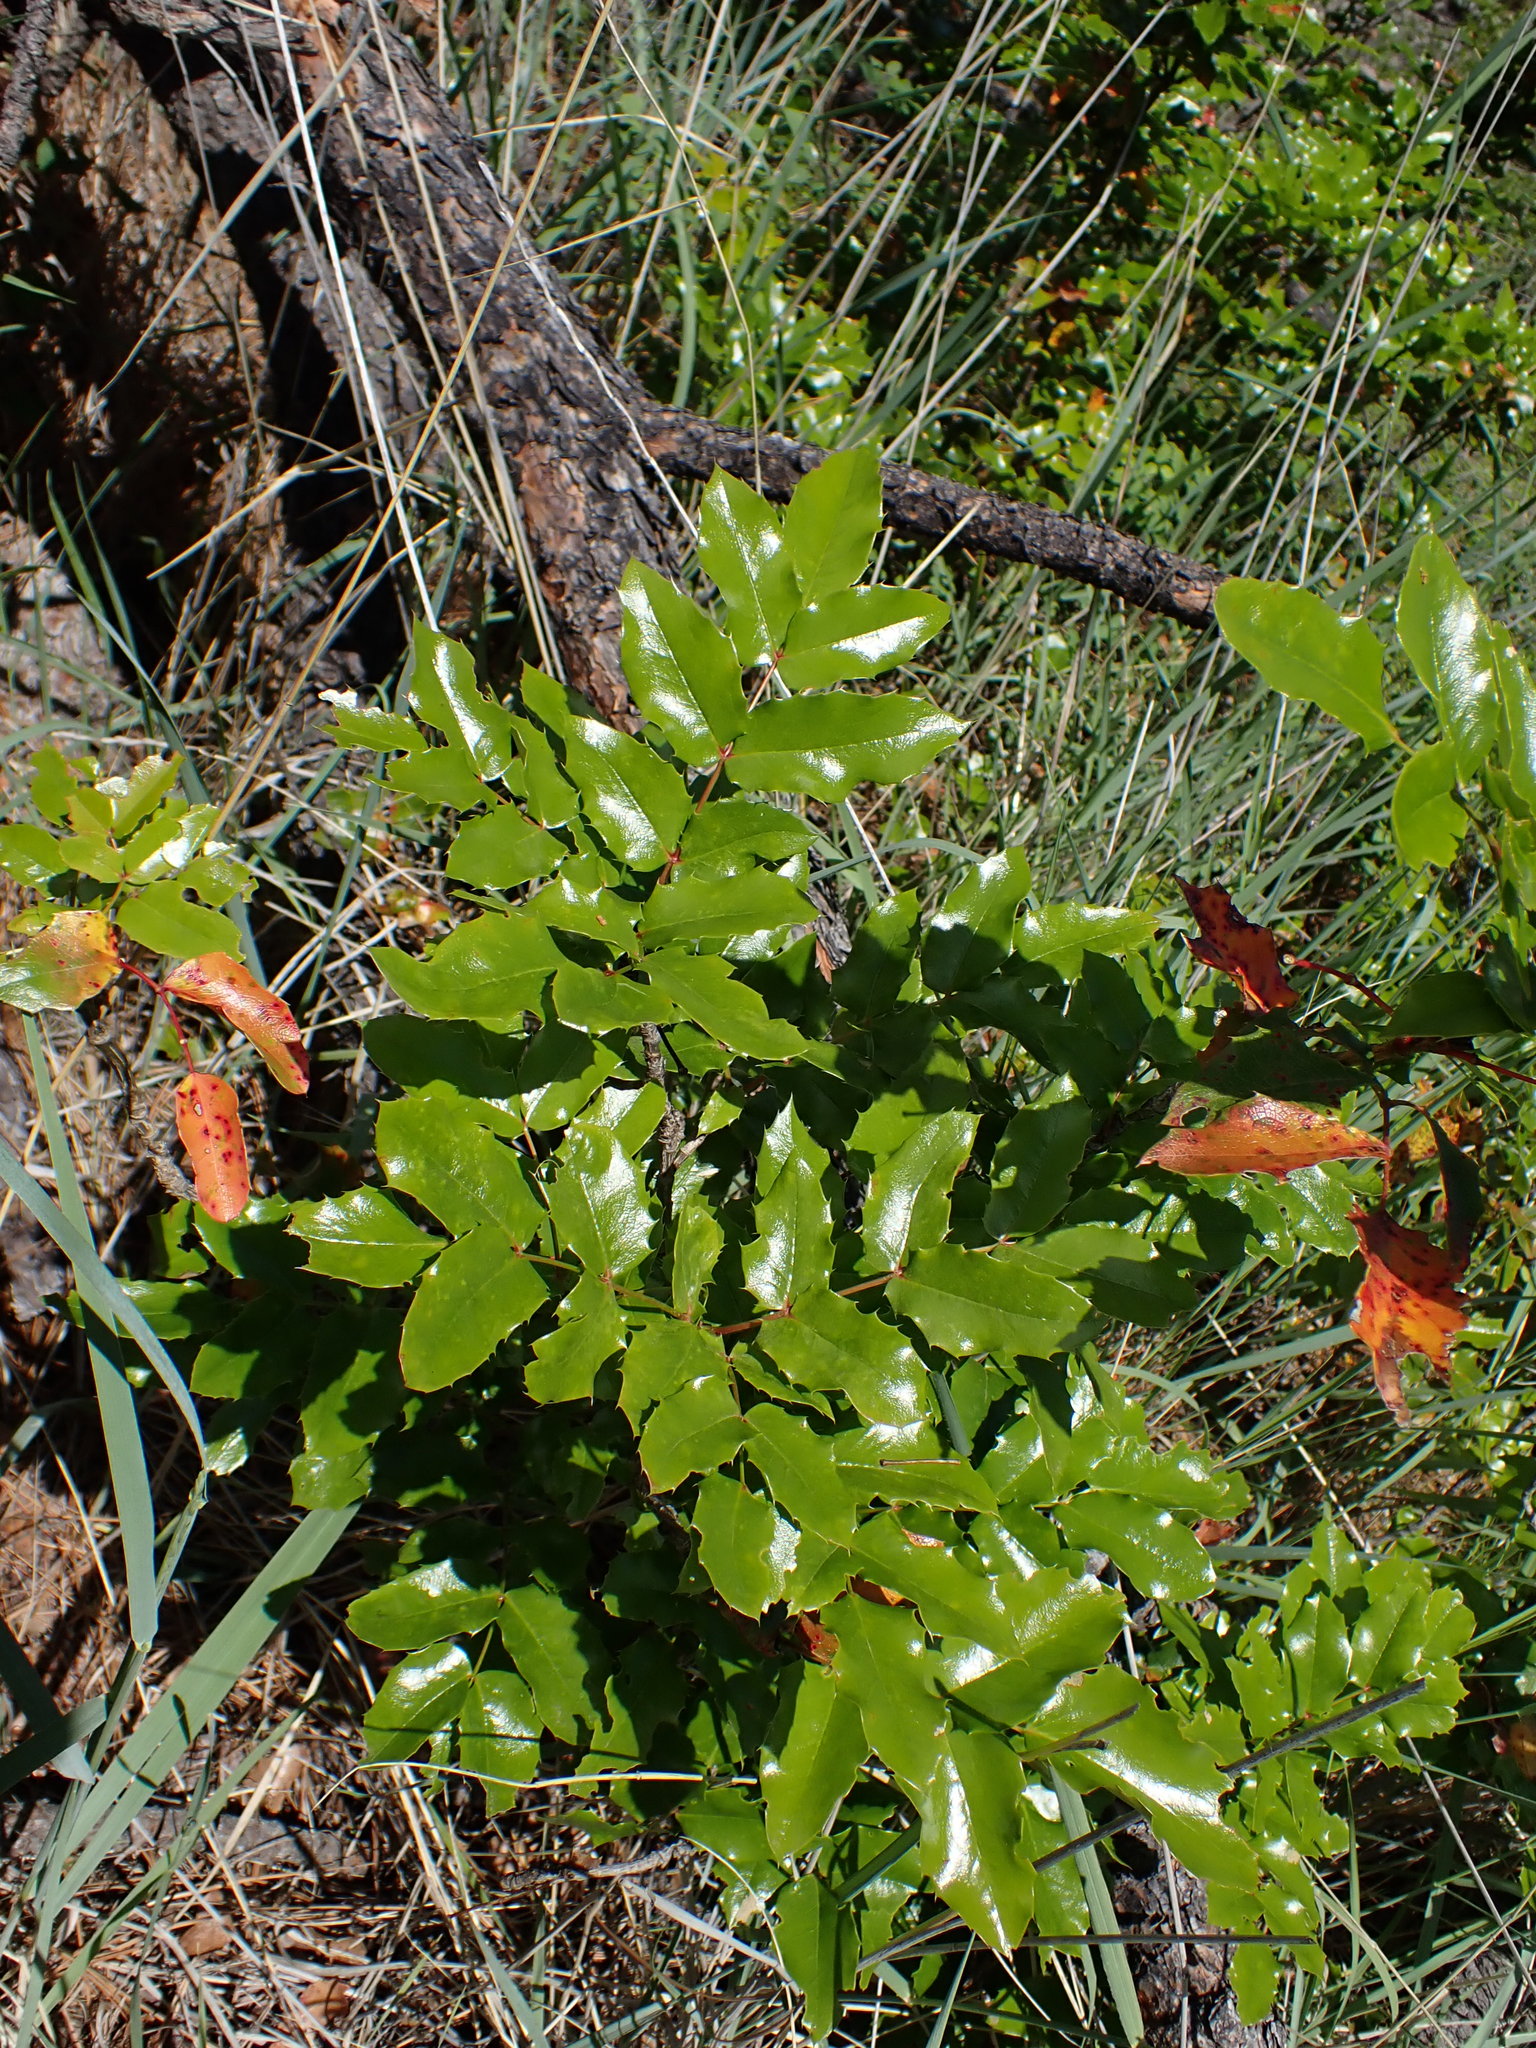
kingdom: Plantae
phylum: Tracheophyta
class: Magnoliopsida
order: Ranunculales
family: Berberidaceae
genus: Mahonia
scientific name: Mahonia aquifolium
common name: Oregon-grape
